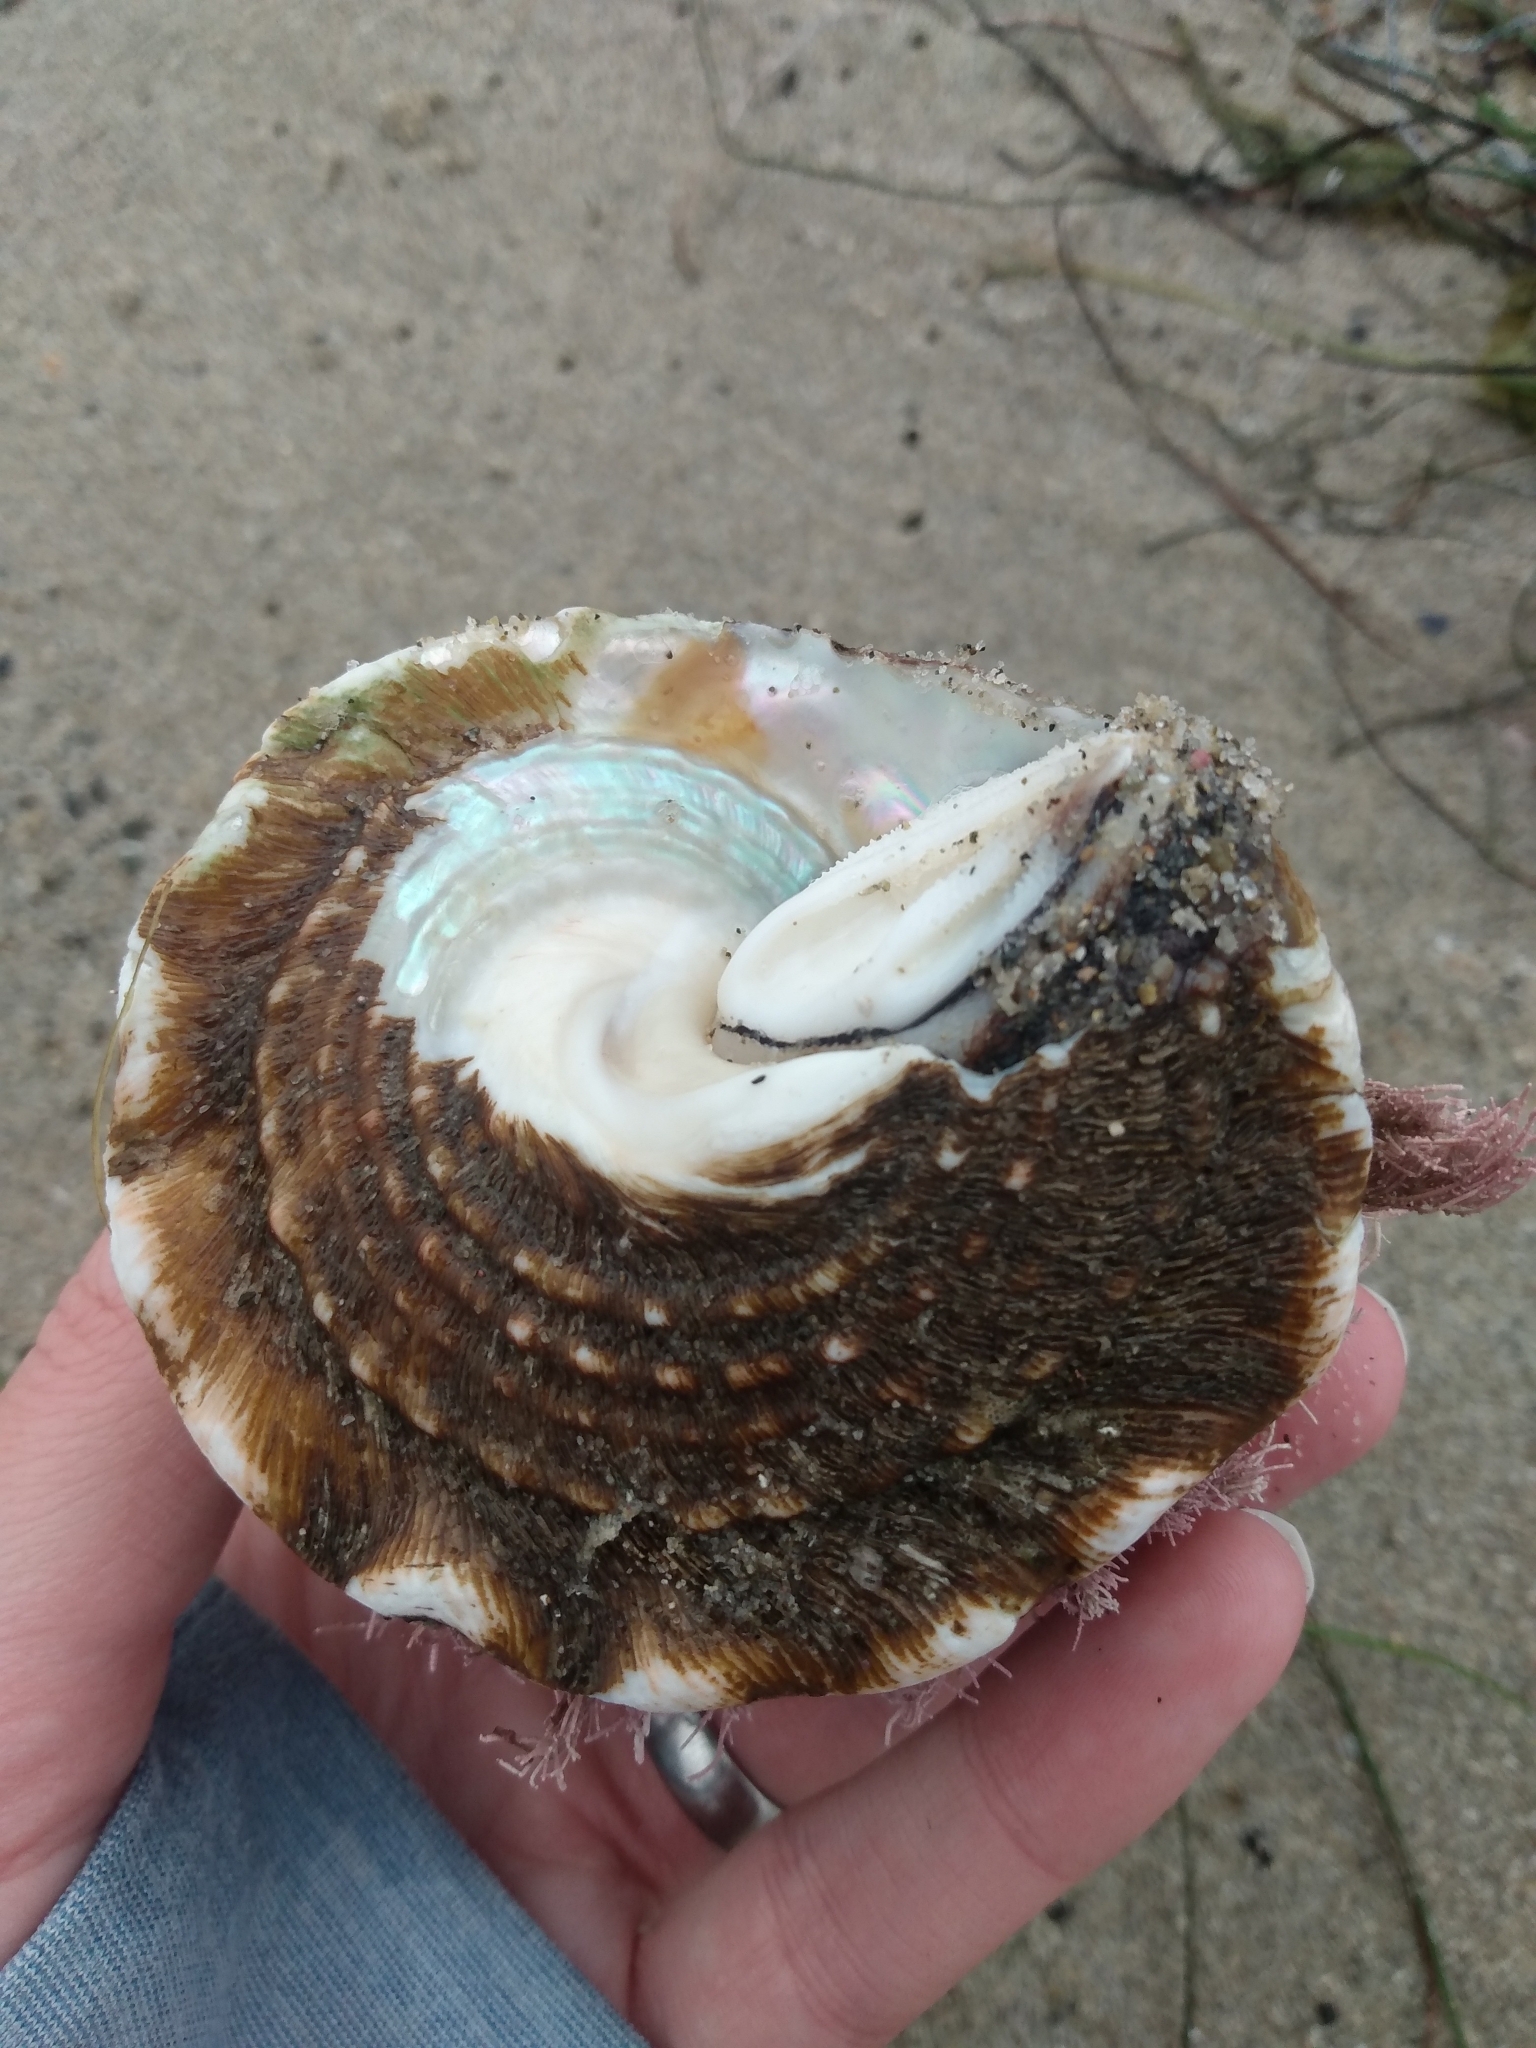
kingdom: Animalia
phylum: Mollusca
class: Gastropoda
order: Trochida
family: Turbinidae
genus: Megastraea
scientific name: Megastraea undosa
